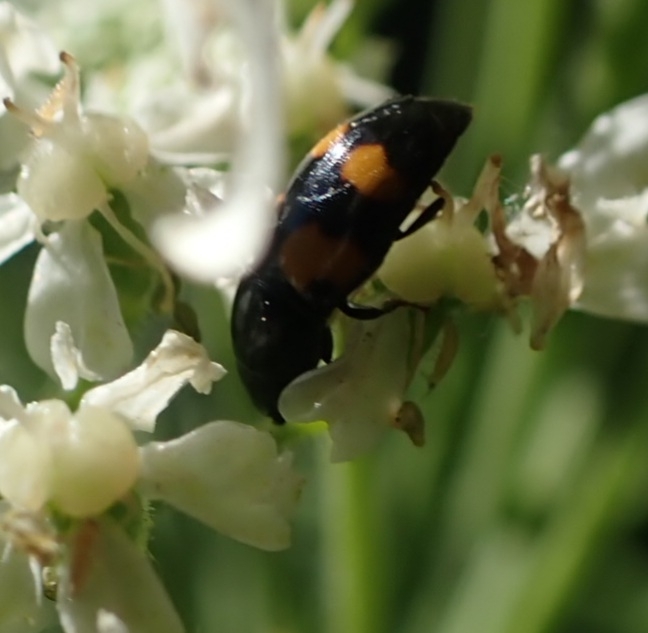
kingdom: Animalia
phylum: Arthropoda
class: Insecta
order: Coleoptera
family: Nitidulidae
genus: Glischrochilus
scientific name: Glischrochilus grandis
